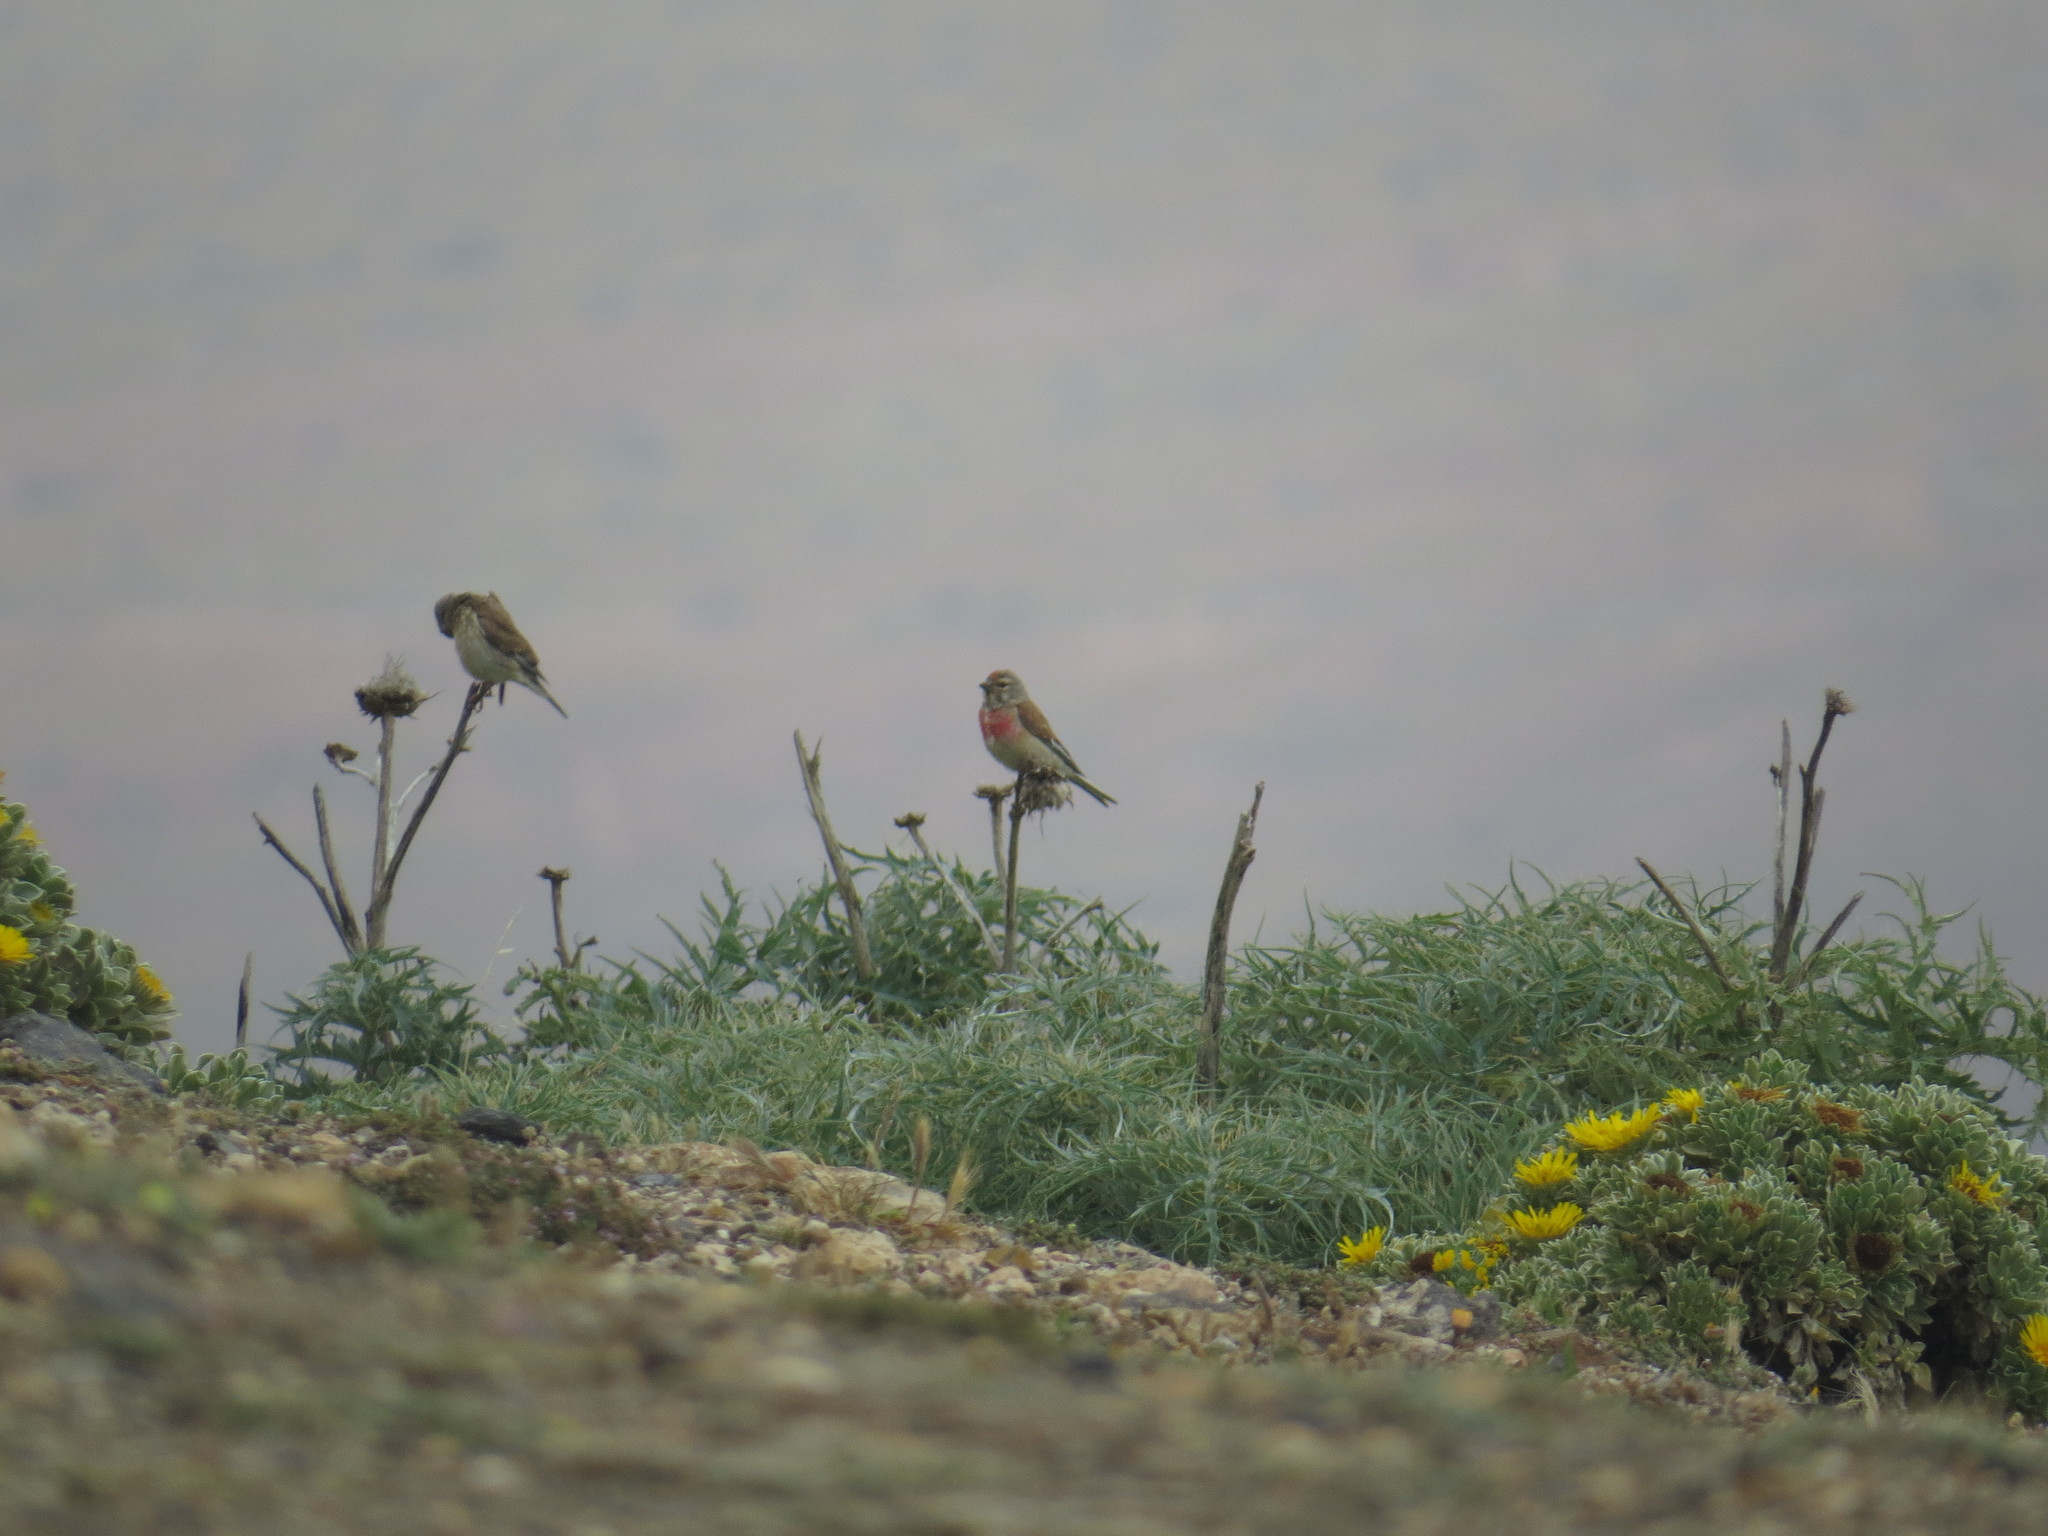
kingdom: Animalia
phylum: Chordata
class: Aves
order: Passeriformes
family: Fringillidae
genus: Linaria
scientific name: Linaria cannabina
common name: Common linnet
